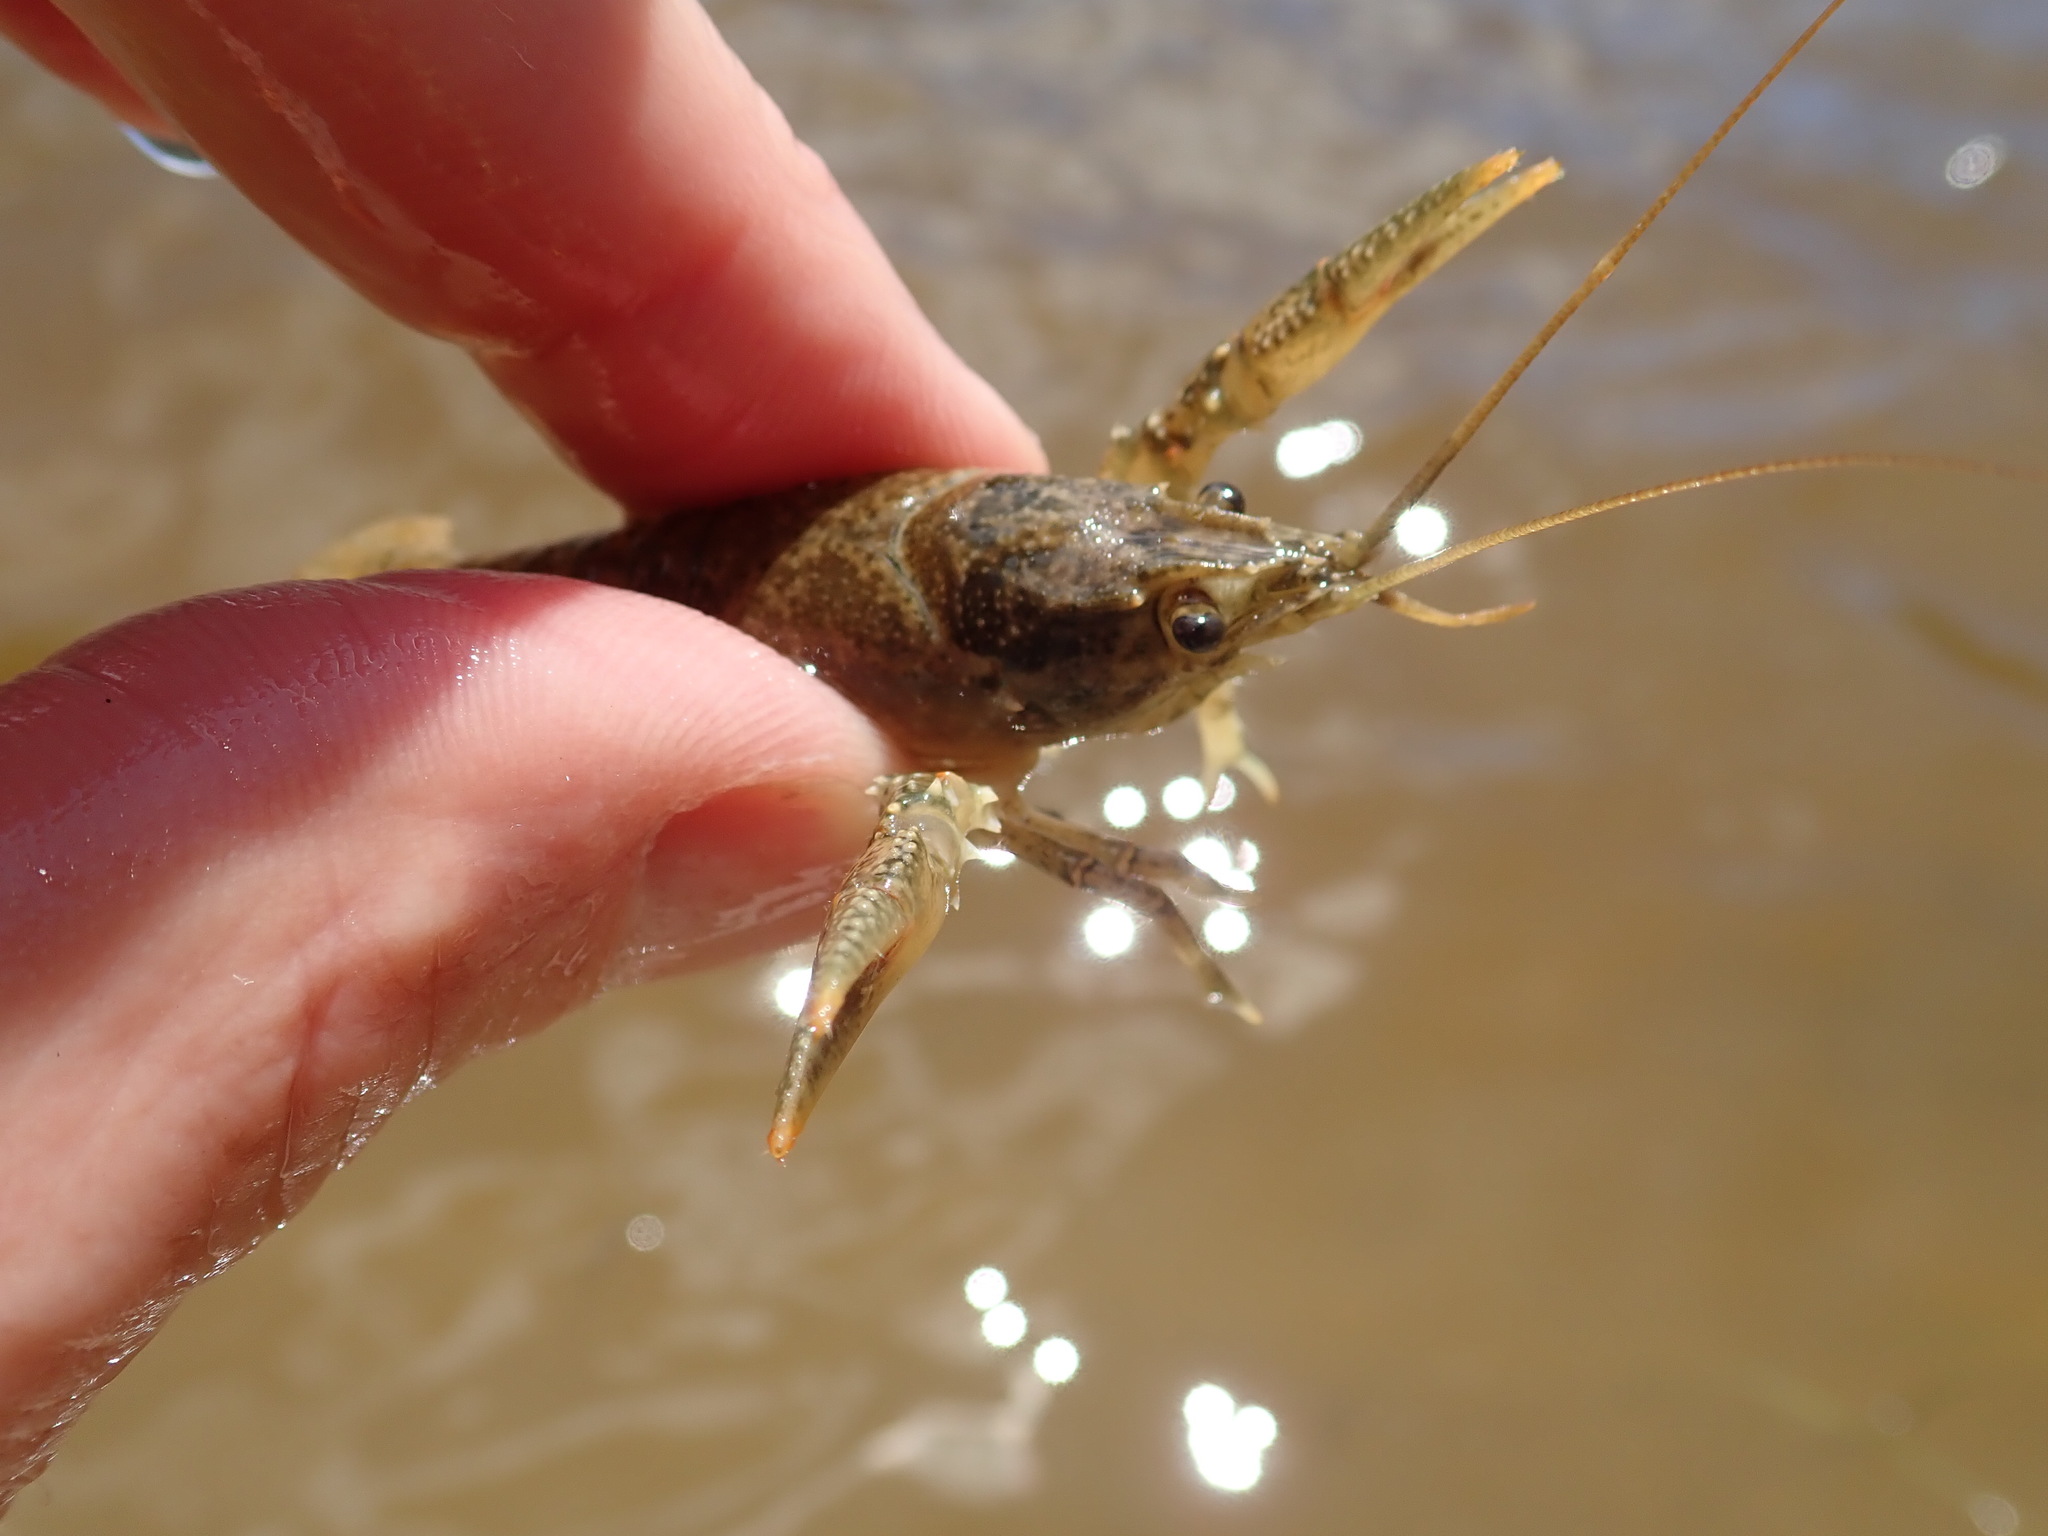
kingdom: Animalia
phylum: Arthropoda
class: Malacostraca
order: Decapoda
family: Cambaridae
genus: Faxonius
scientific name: Faxonius virilis
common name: Virile crayfish
